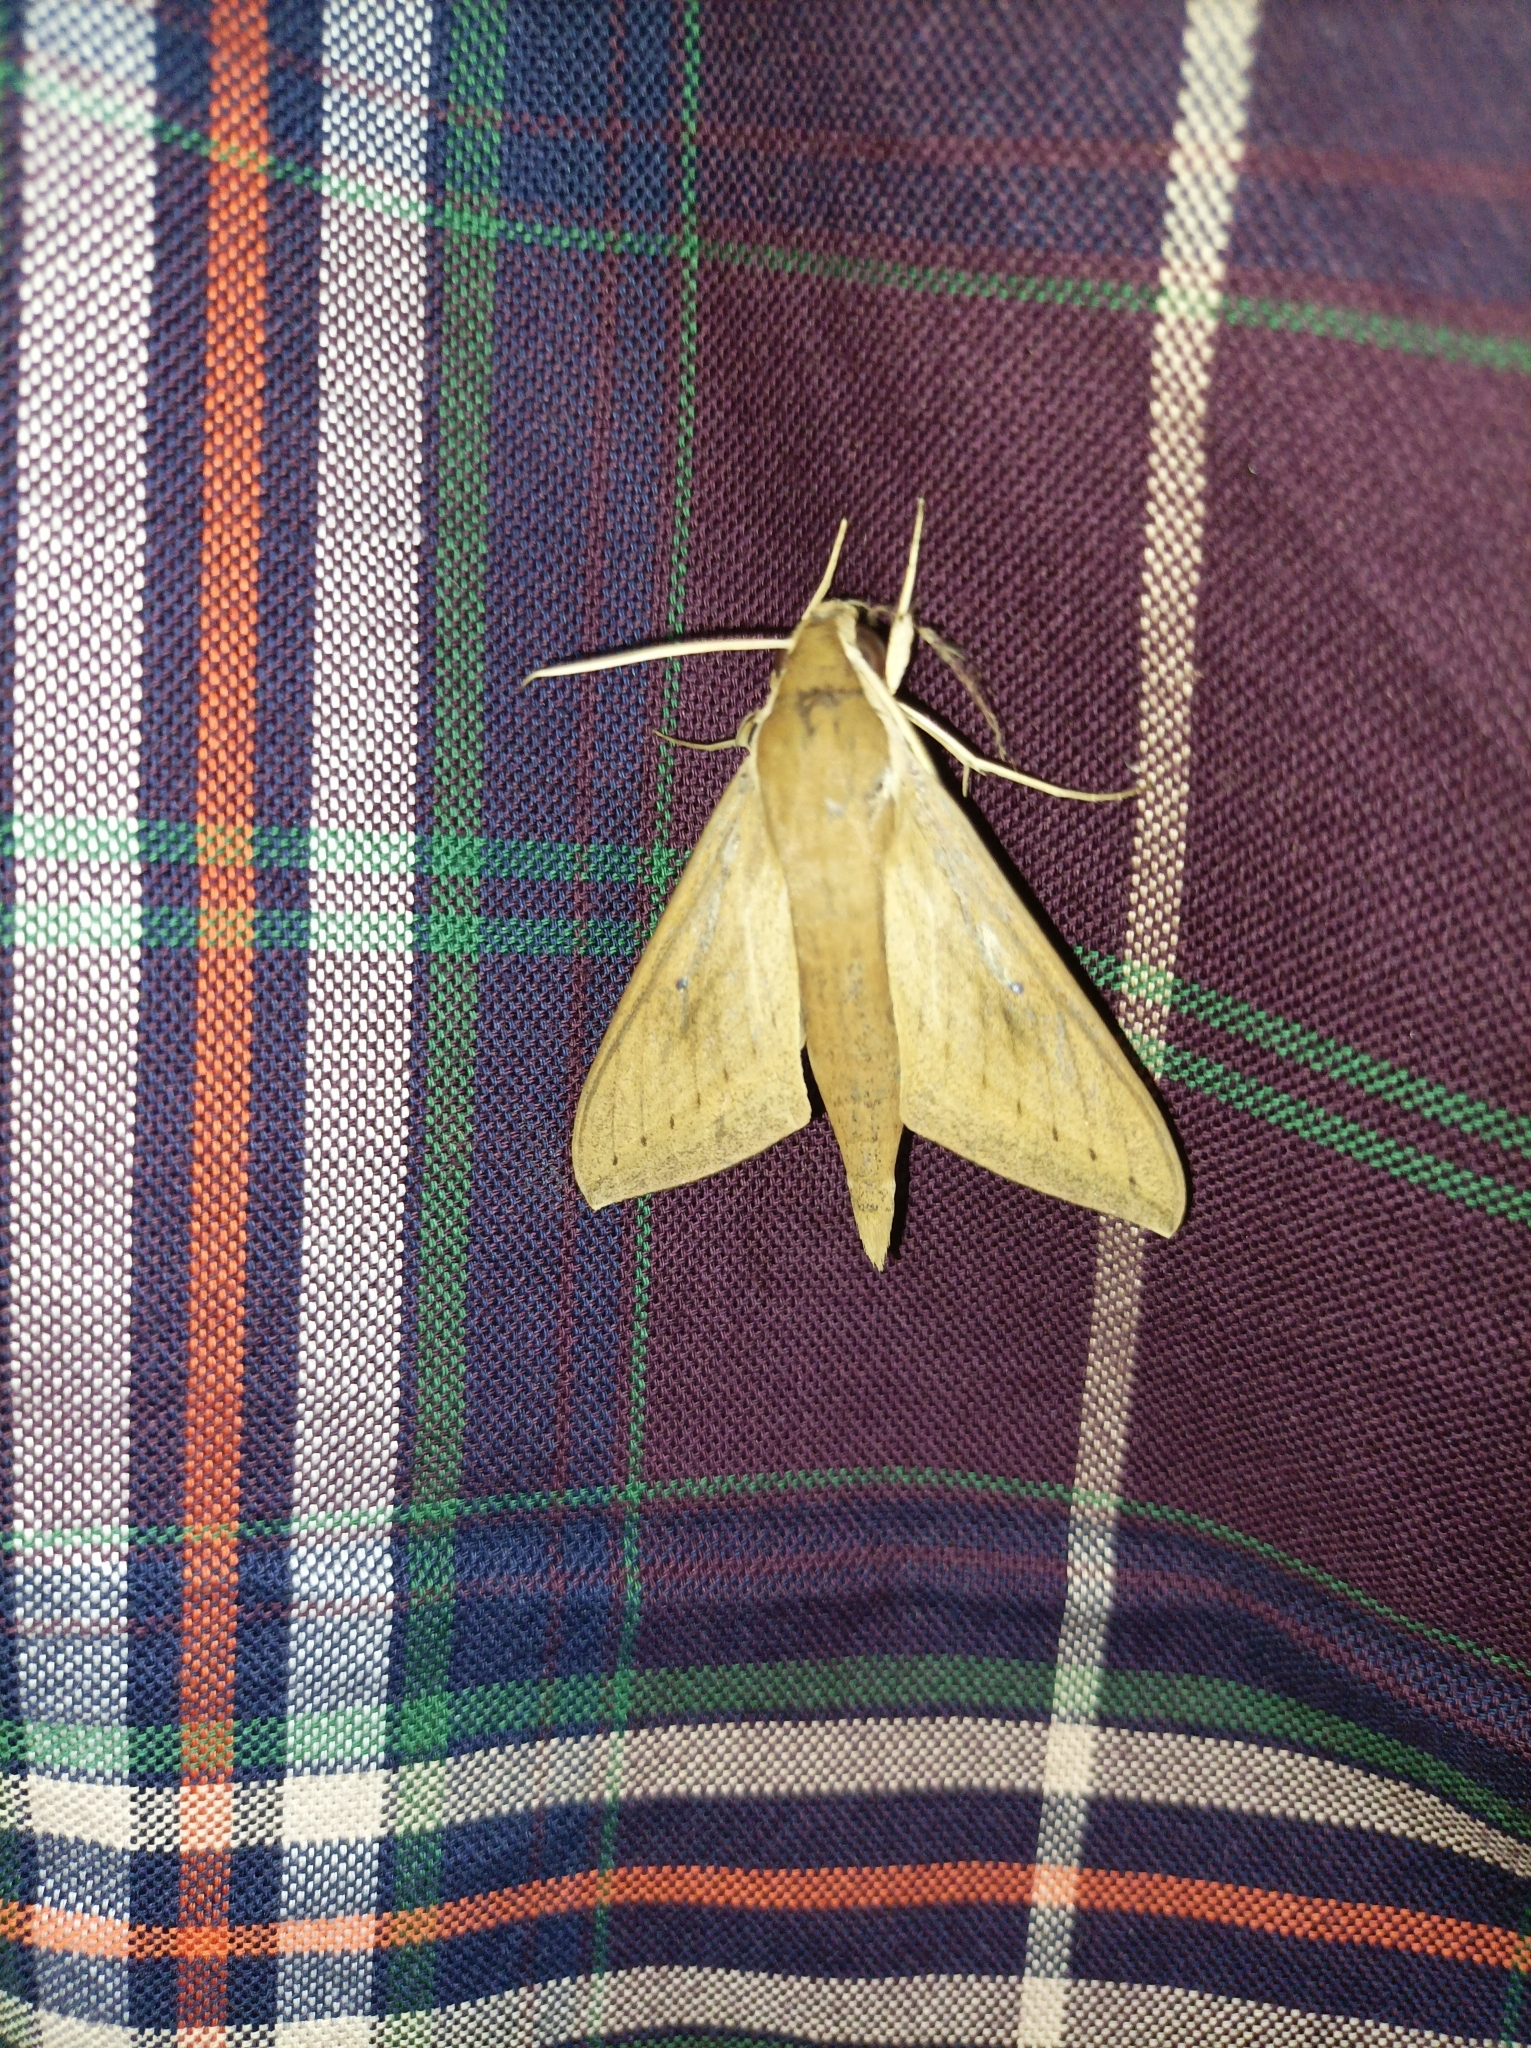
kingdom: Animalia
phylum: Arthropoda
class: Insecta
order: Lepidoptera
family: Sphingidae
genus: Theretra
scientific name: Theretra rhesus
